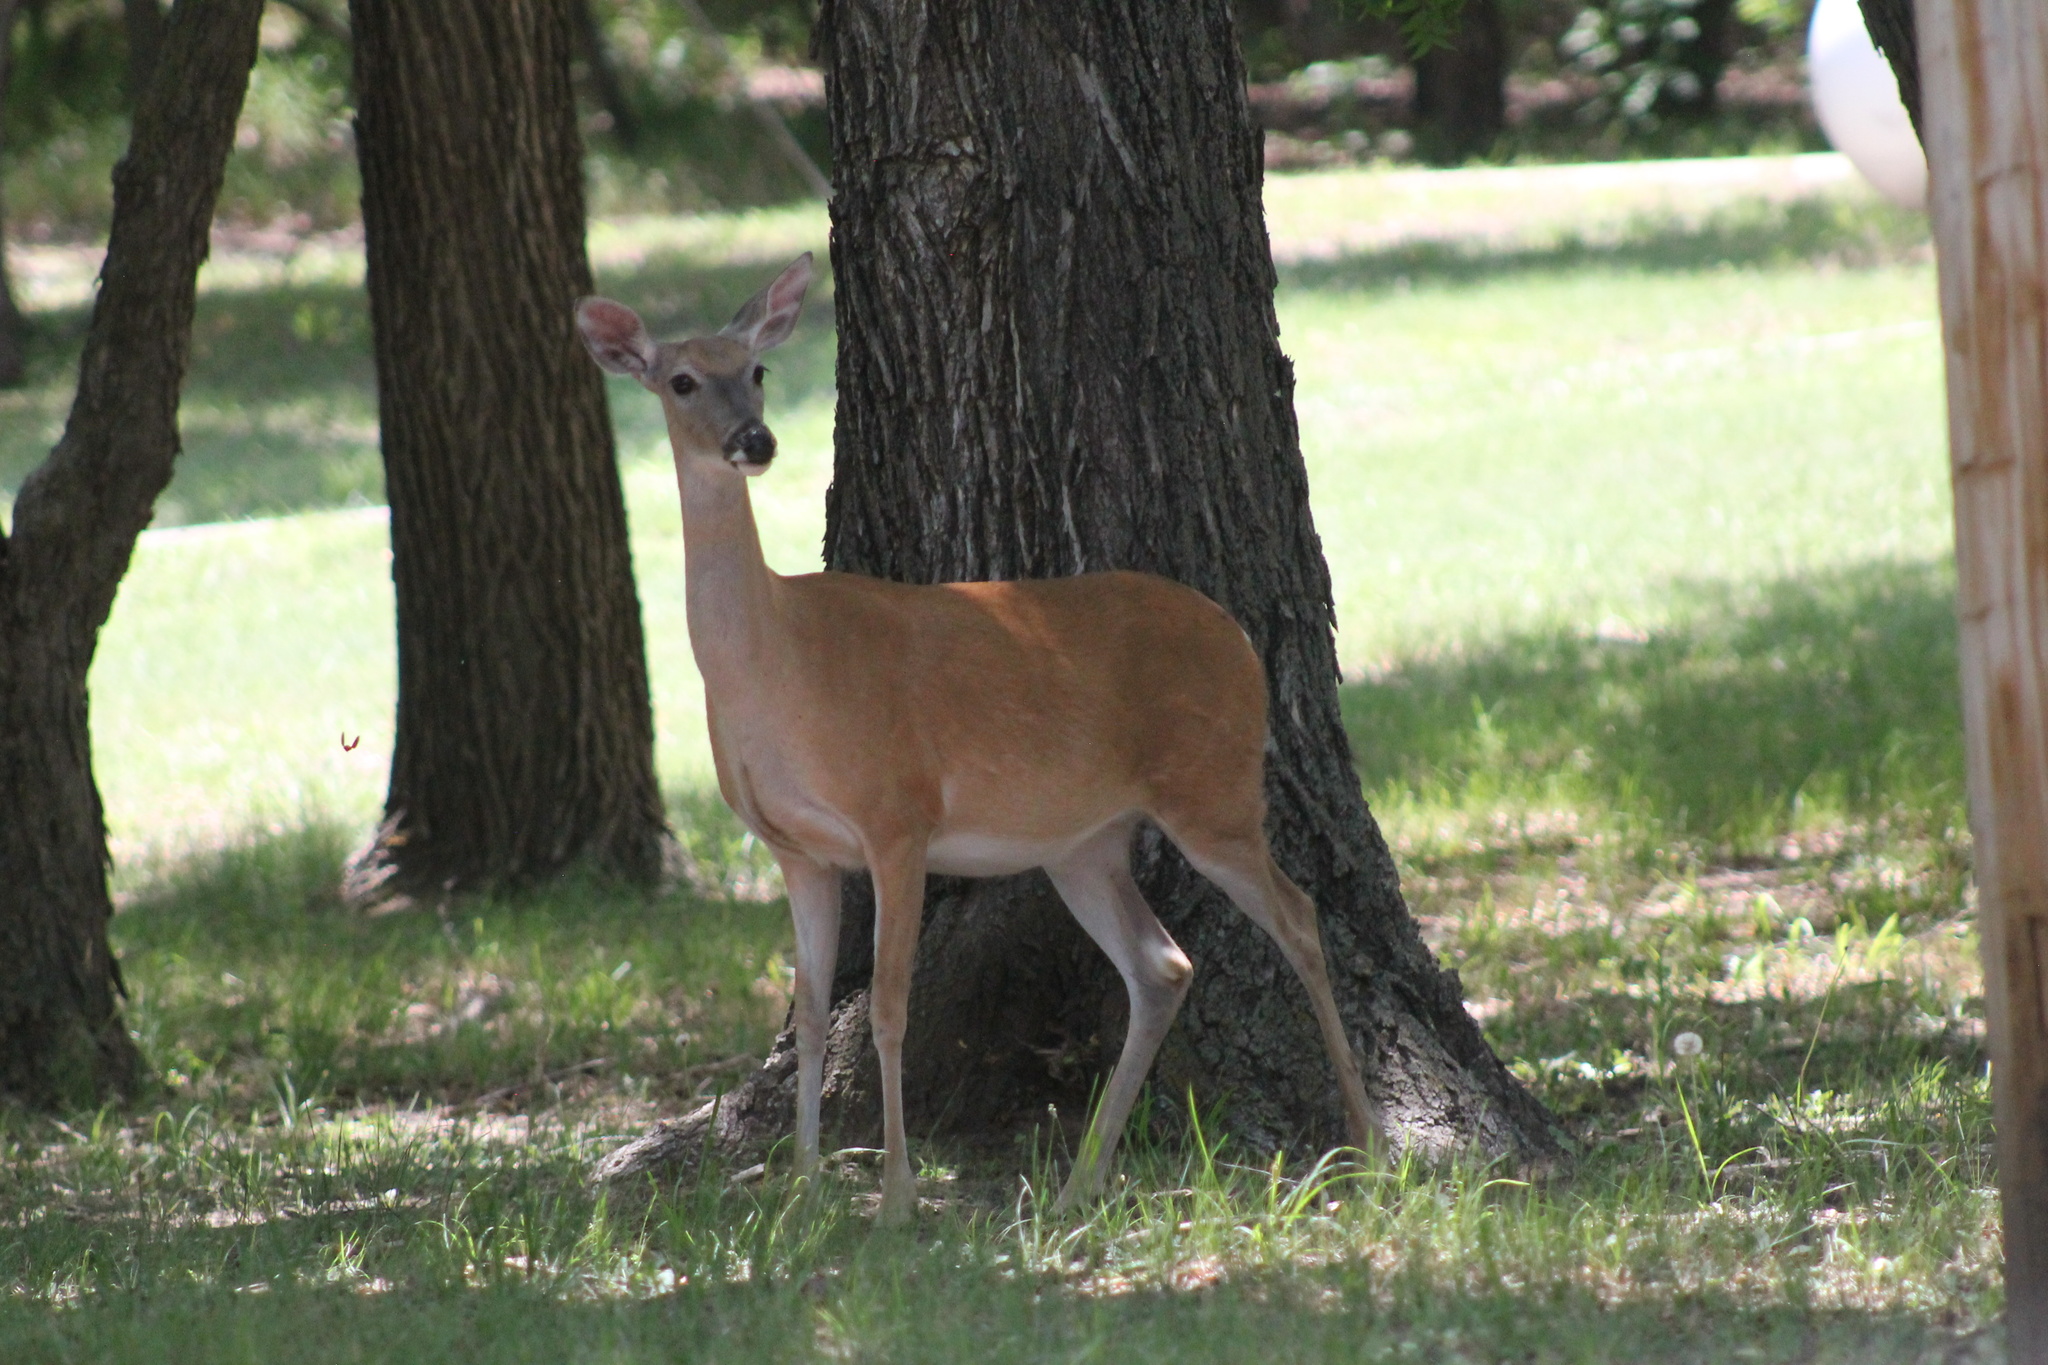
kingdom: Animalia
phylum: Chordata
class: Mammalia
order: Artiodactyla
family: Cervidae
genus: Odocoileus
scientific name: Odocoileus virginianus
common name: White-tailed deer
